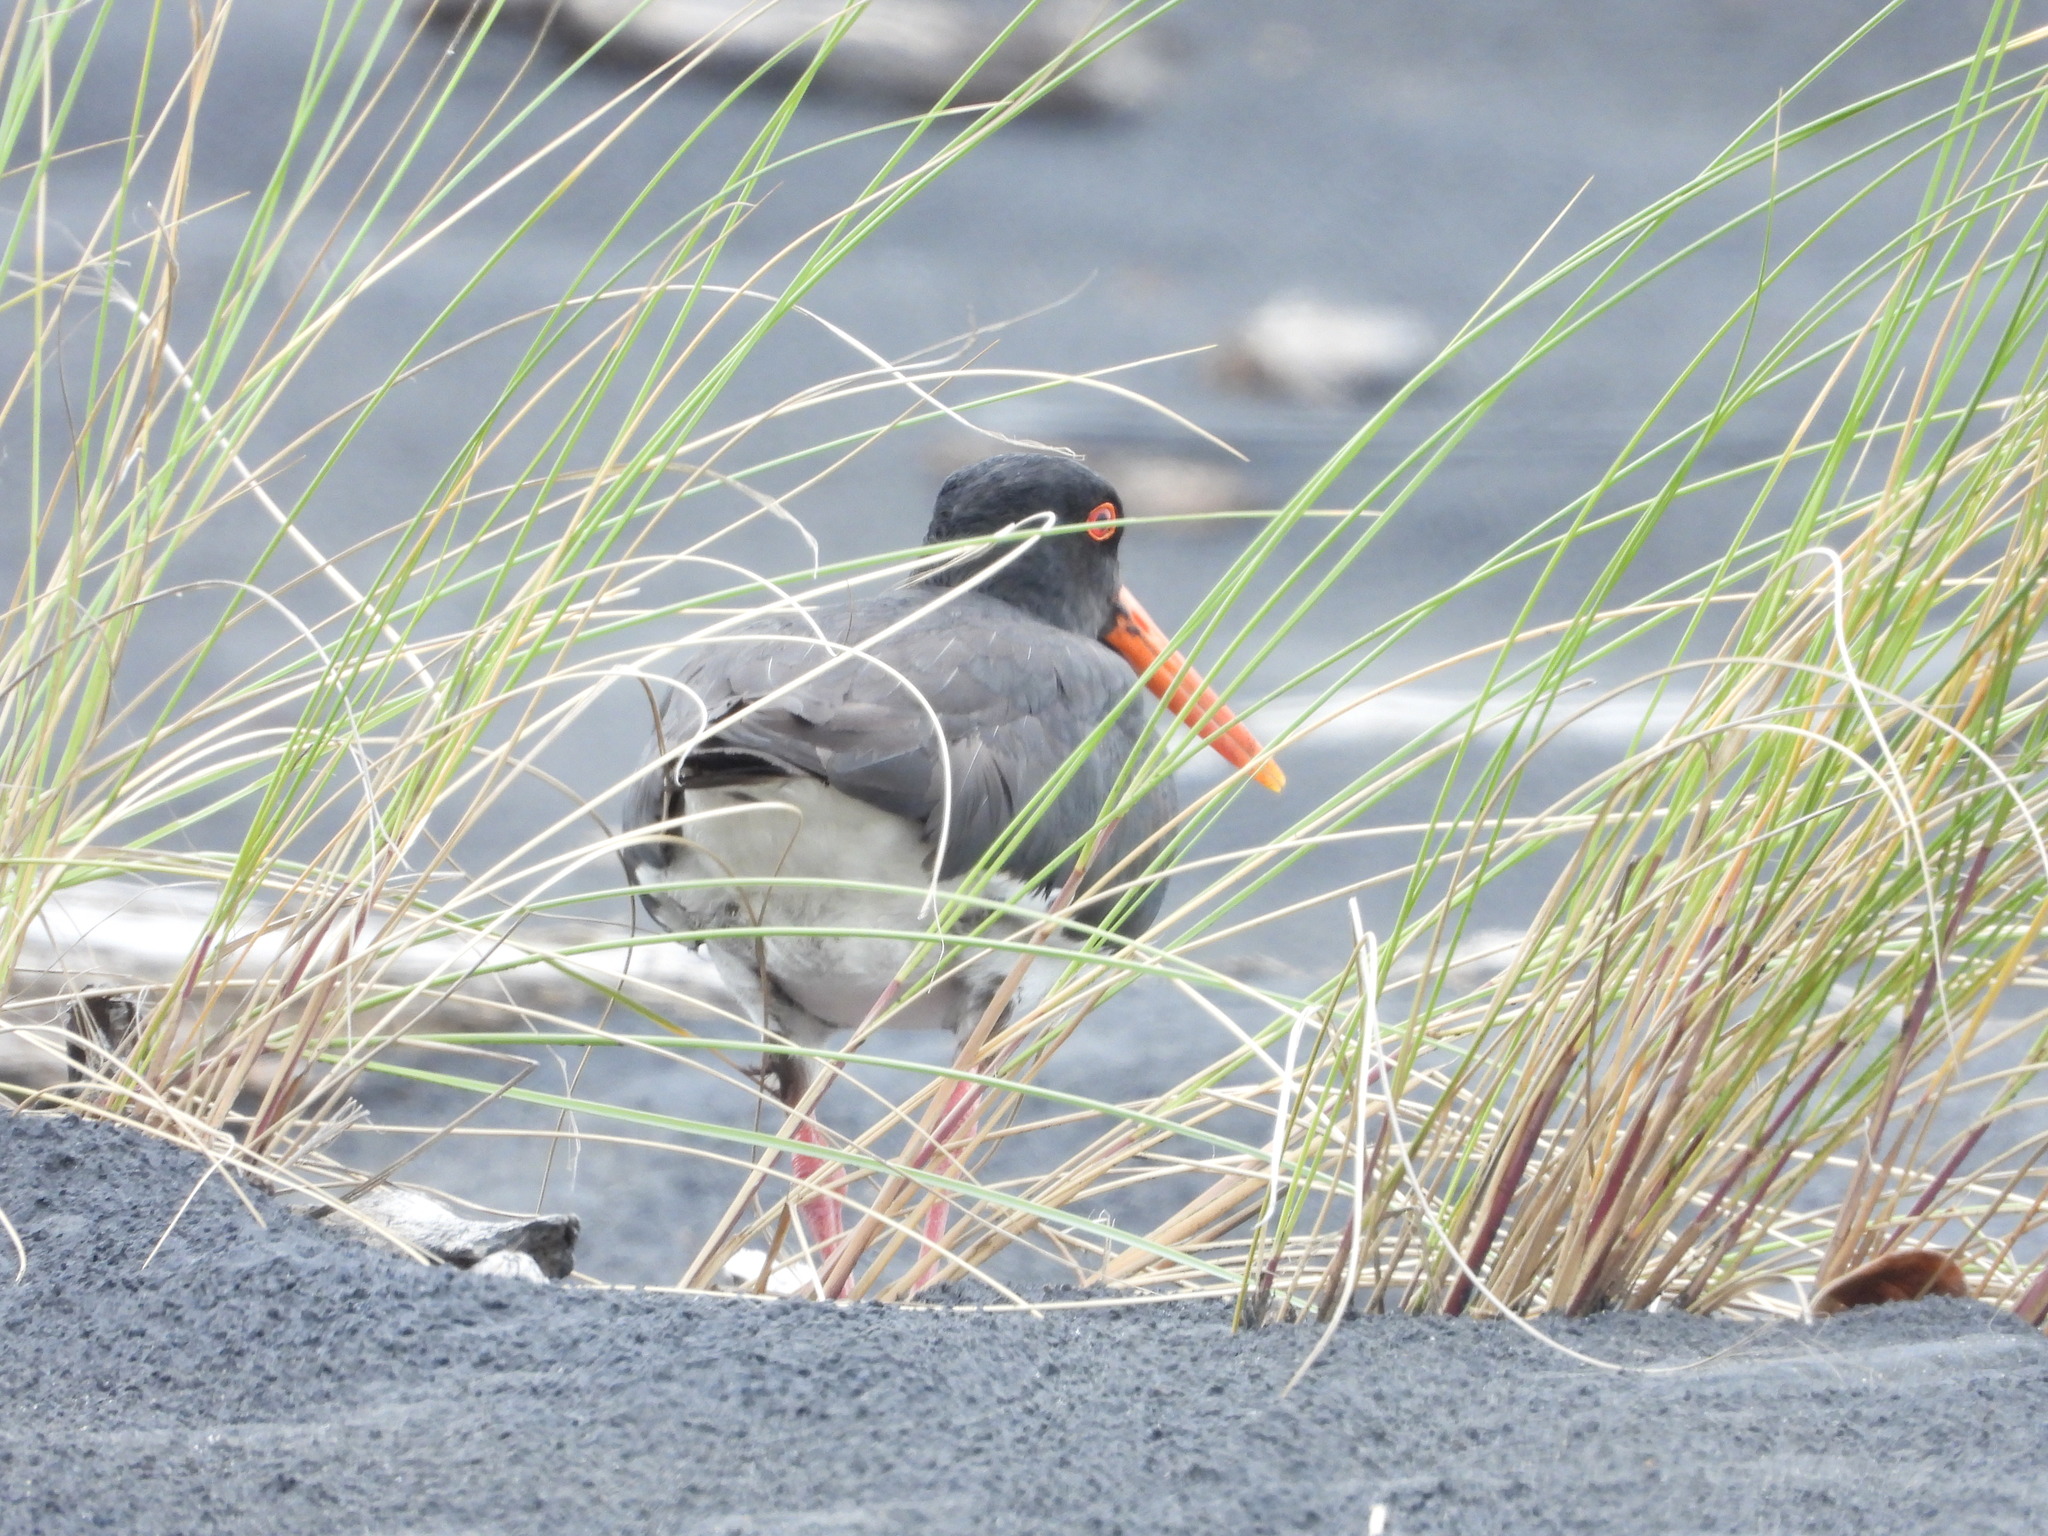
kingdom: Animalia
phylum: Chordata
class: Aves
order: Charadriiformes
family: Haematopodidae
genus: Haematopus
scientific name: Haematopus unicolor
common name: Variable oystercatcher
